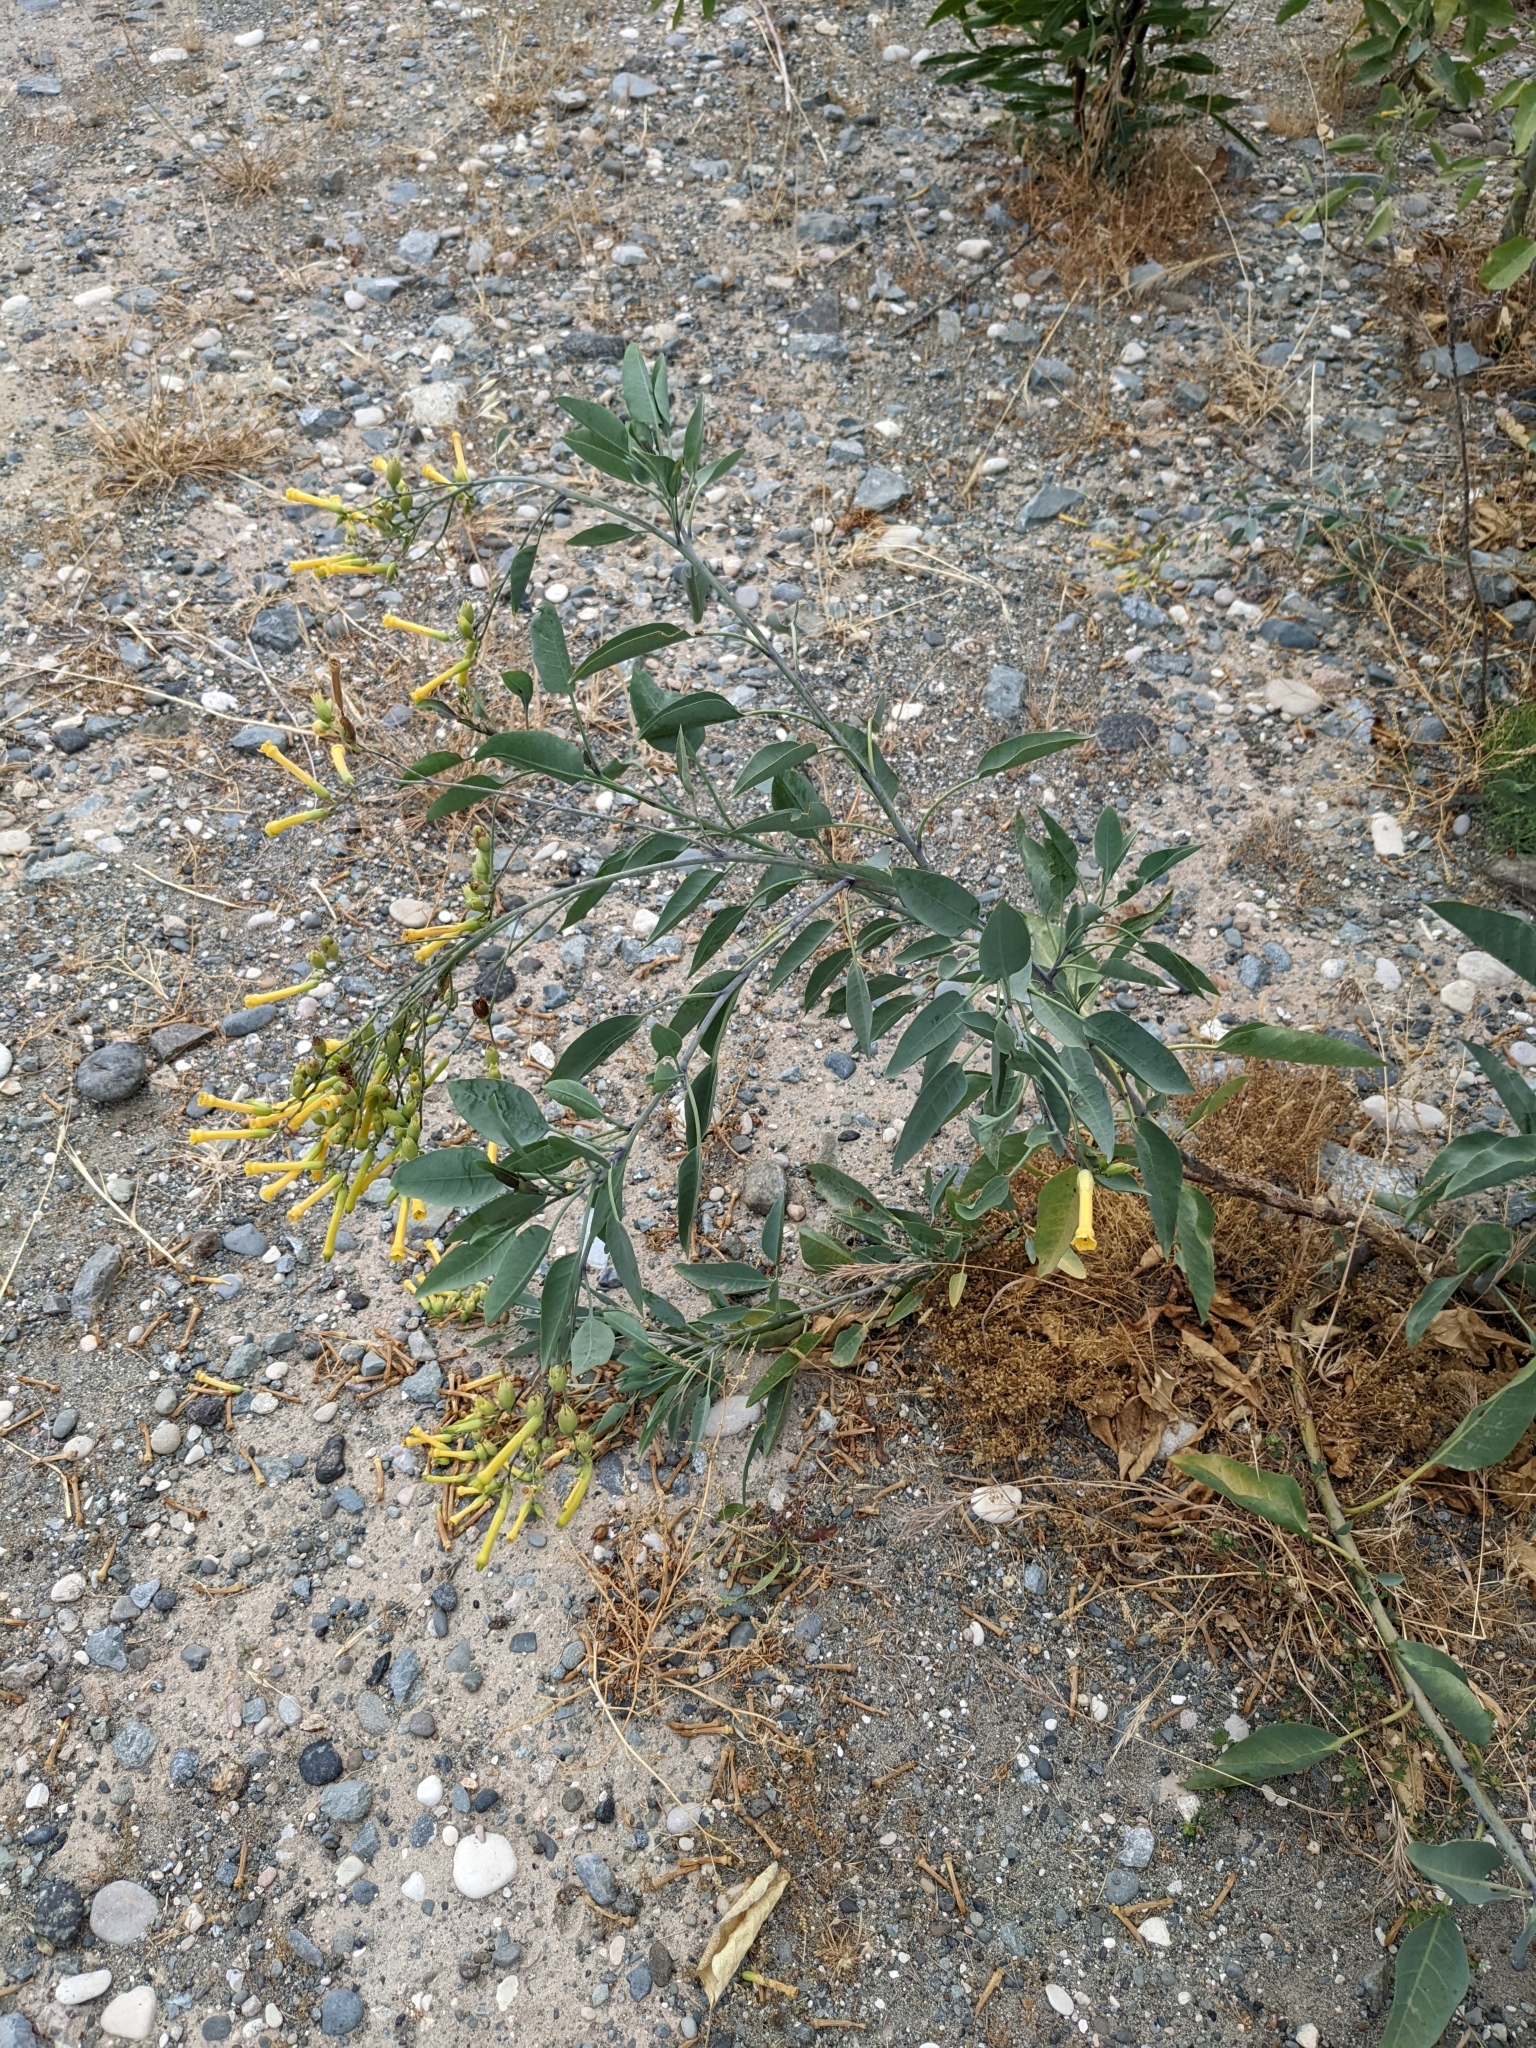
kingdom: Plantae
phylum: Tracheophyta
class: Magnoliopsida
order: Solanales
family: Solanaceae
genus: Nicotiana
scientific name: Nicotiana glauca
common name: Tree tobacco
